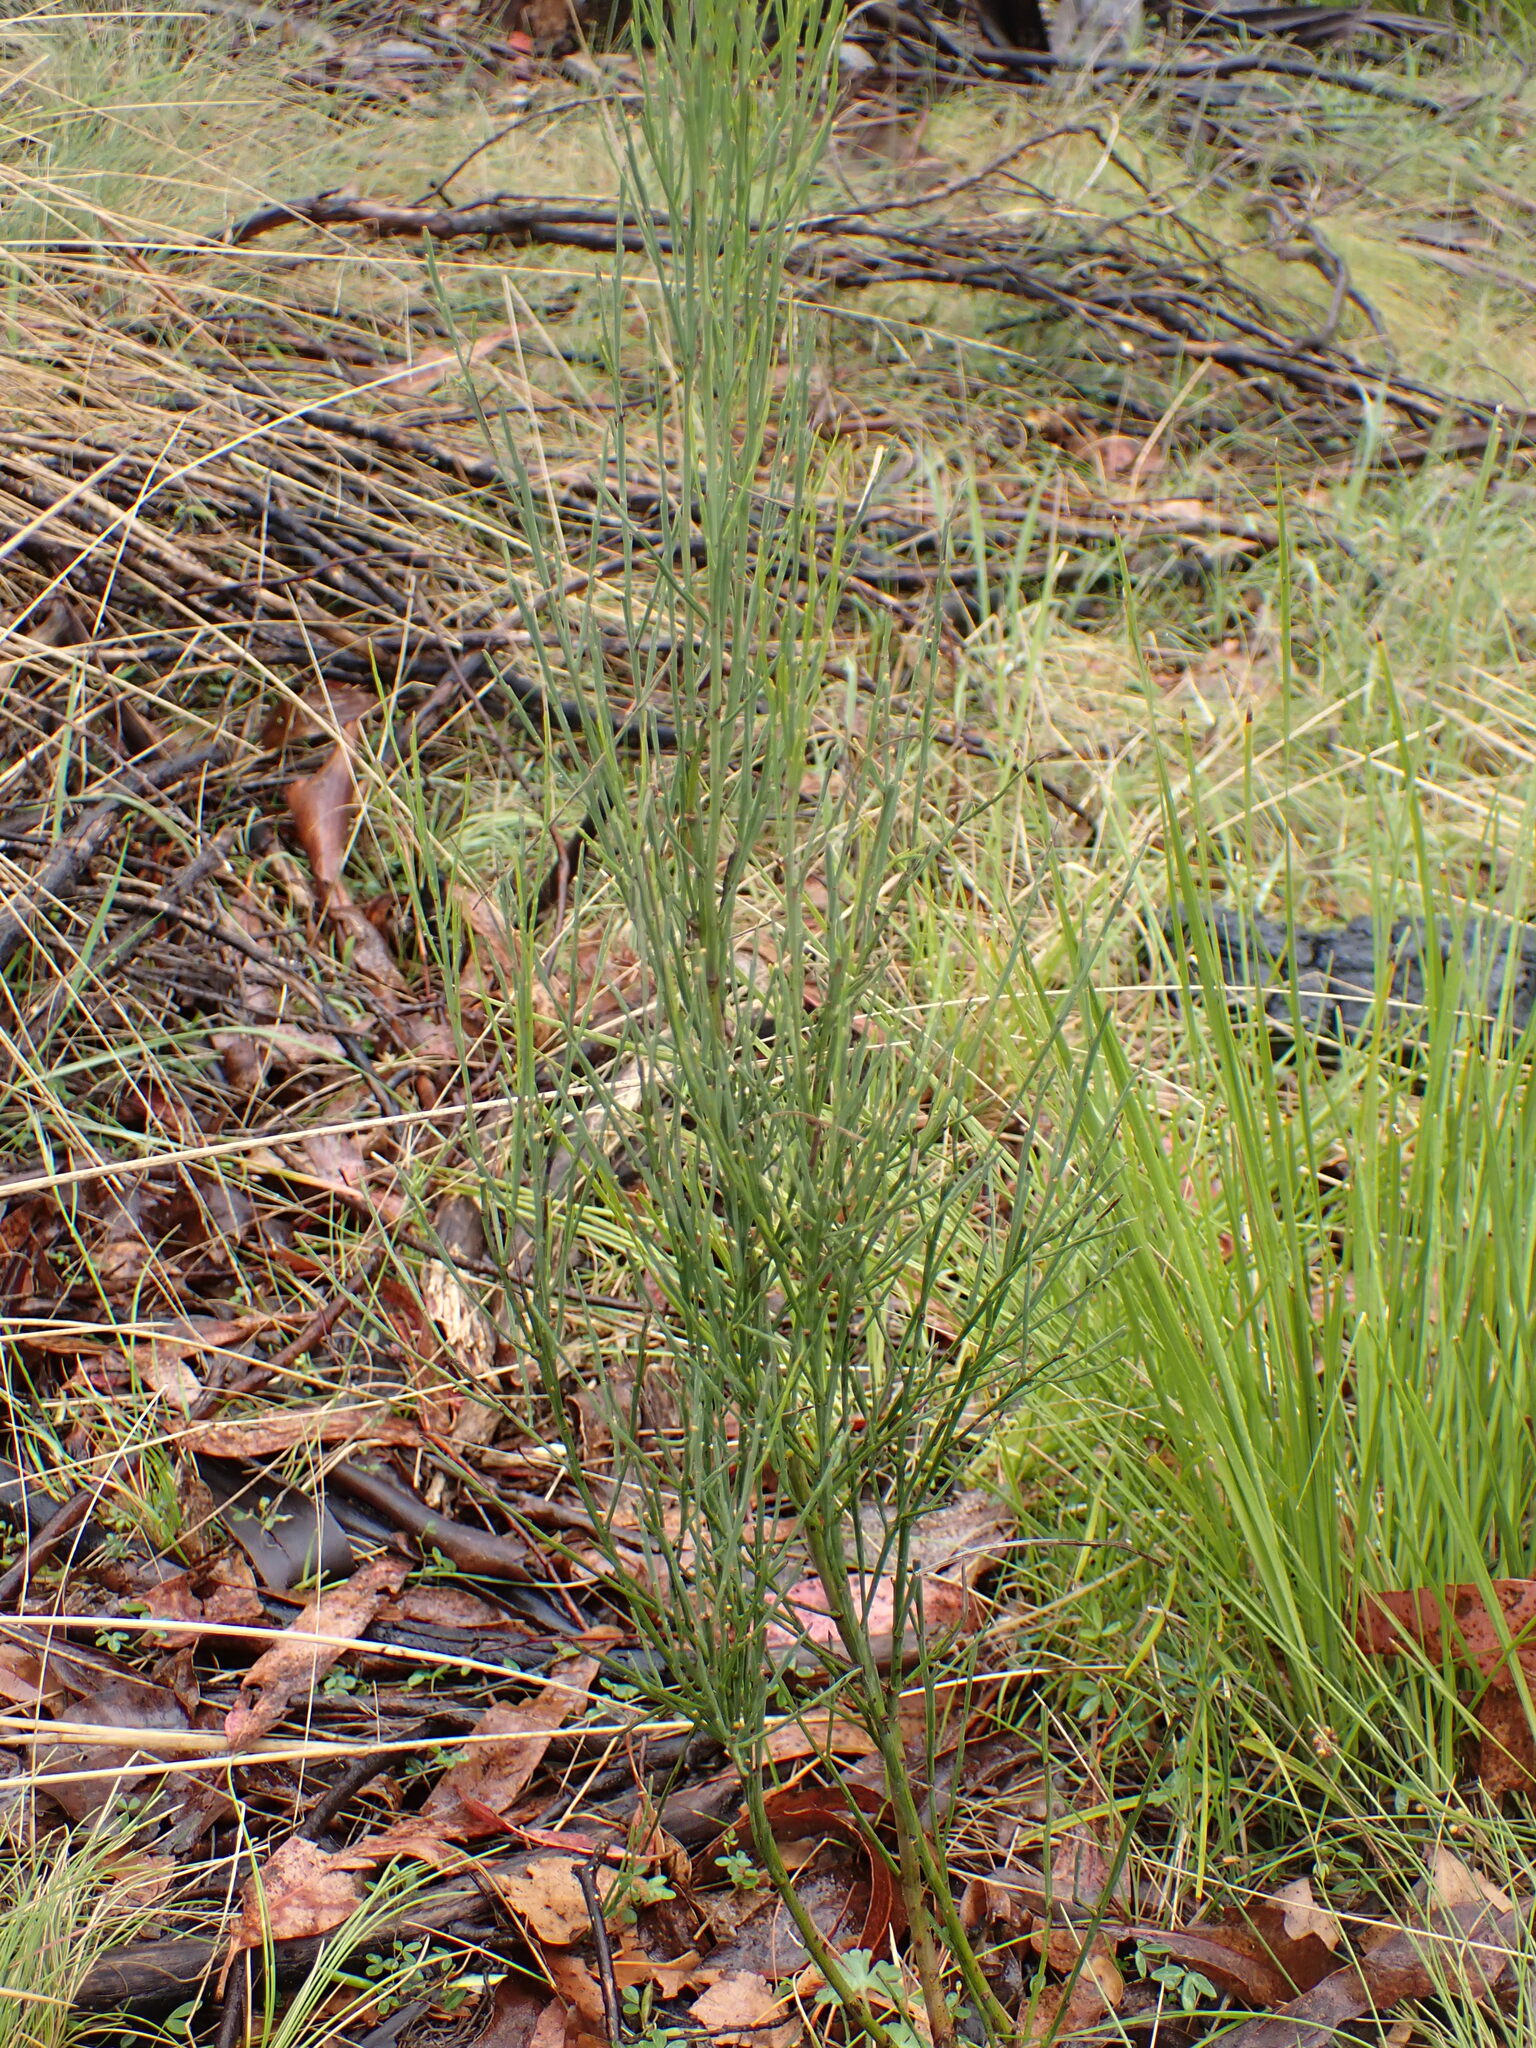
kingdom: Plantae
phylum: Tracheophyta
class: Magnoliopsida
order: Santalales
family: Santalaceae
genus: Exocarpos
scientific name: Exocarpos strictus
